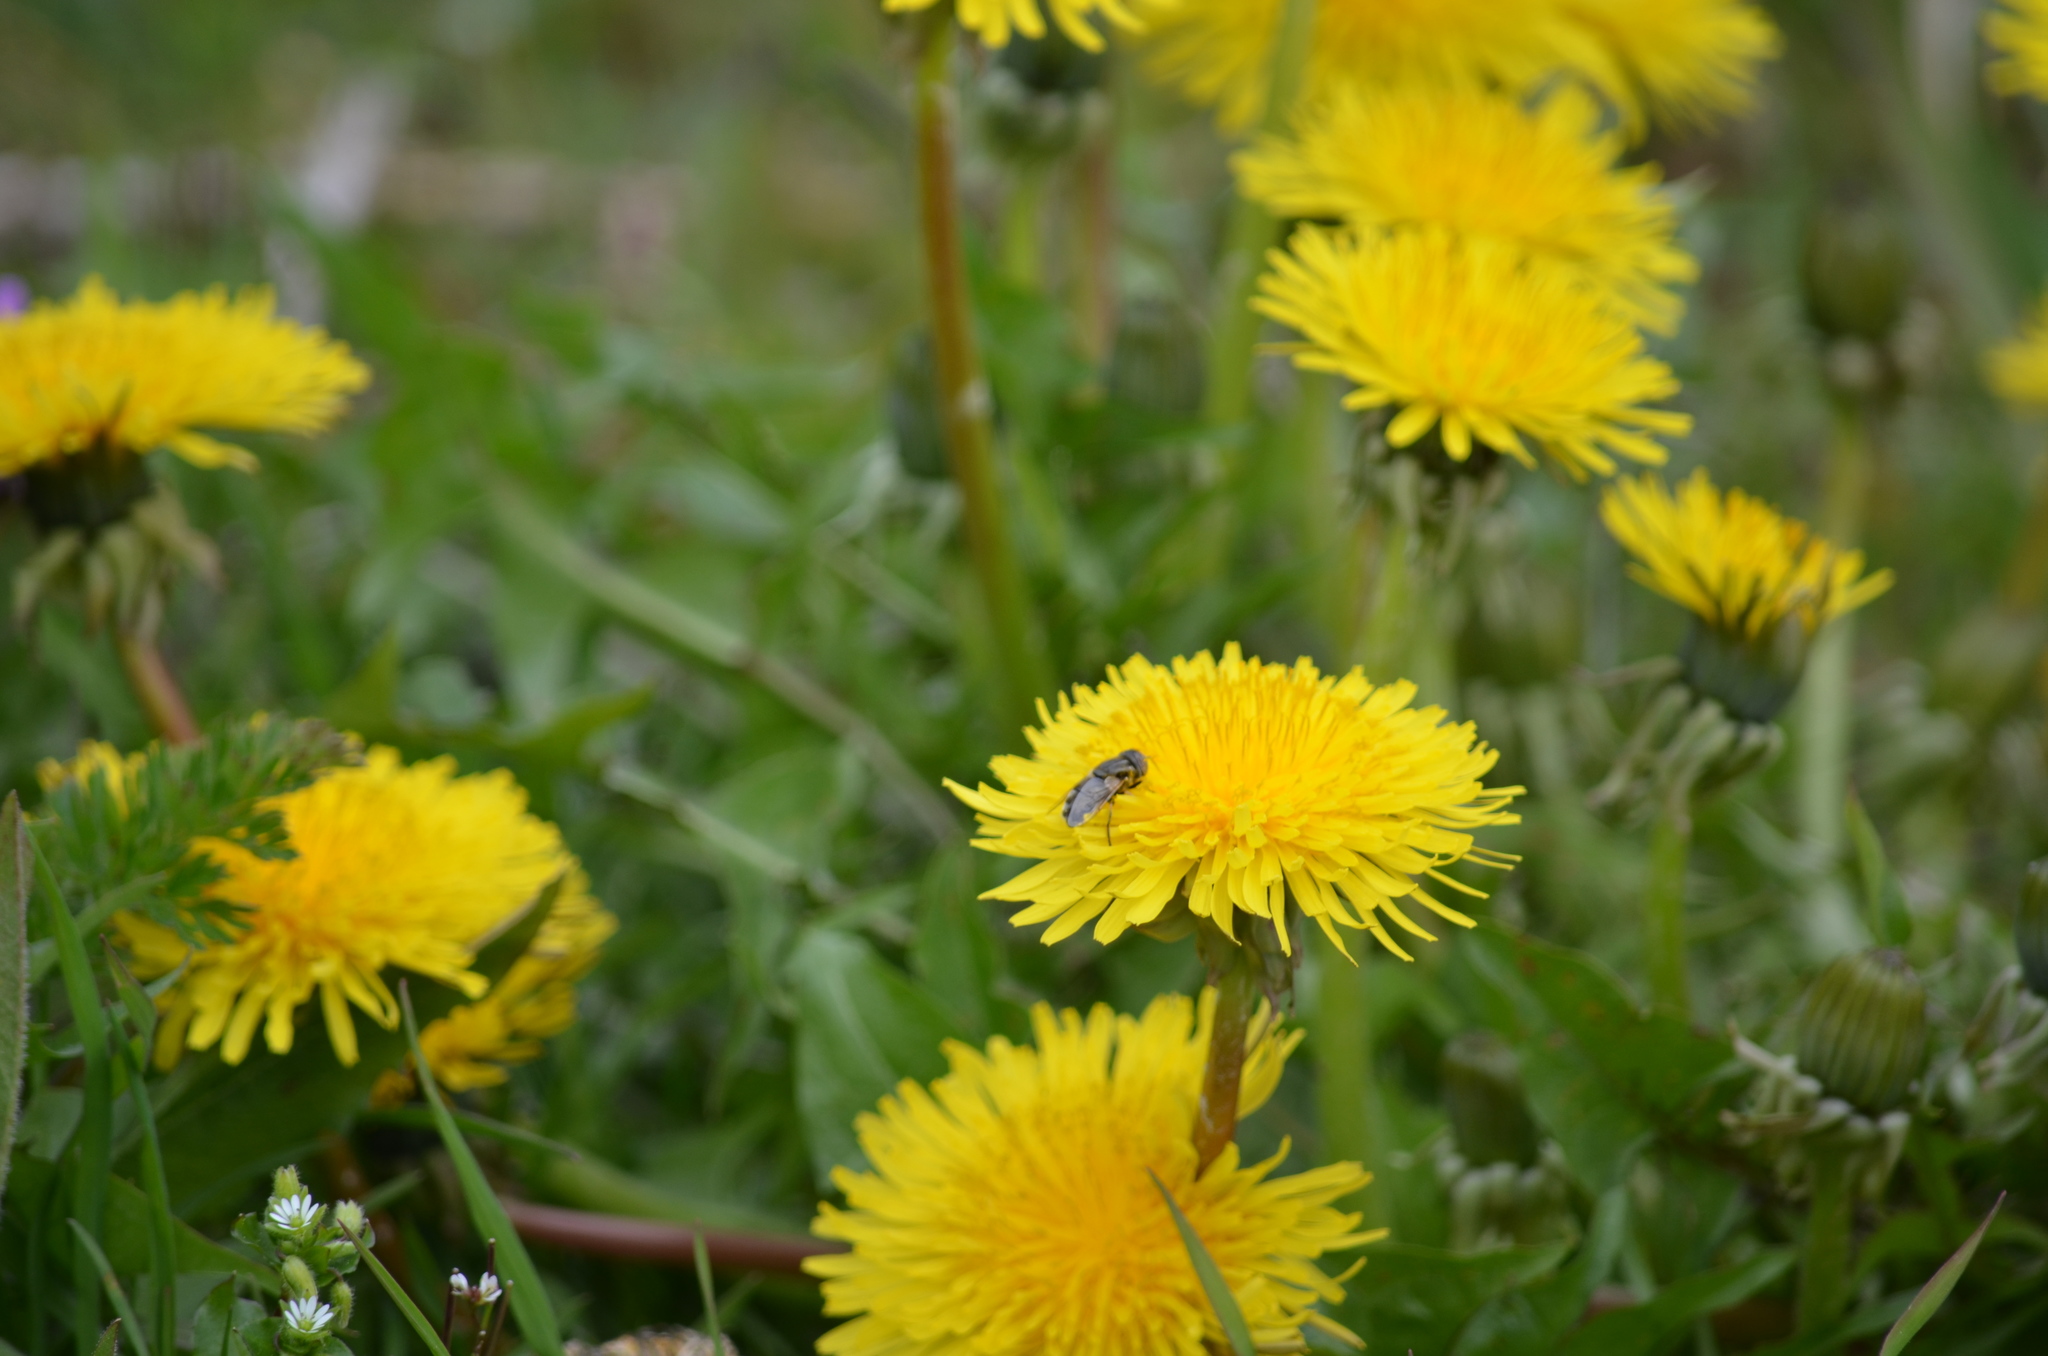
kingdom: Animalia
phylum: Arthropoda
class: Insecta
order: Diptera
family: Syrphidae
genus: Eristalinus
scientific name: Eristalinus aeneus
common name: Syrphid fly
